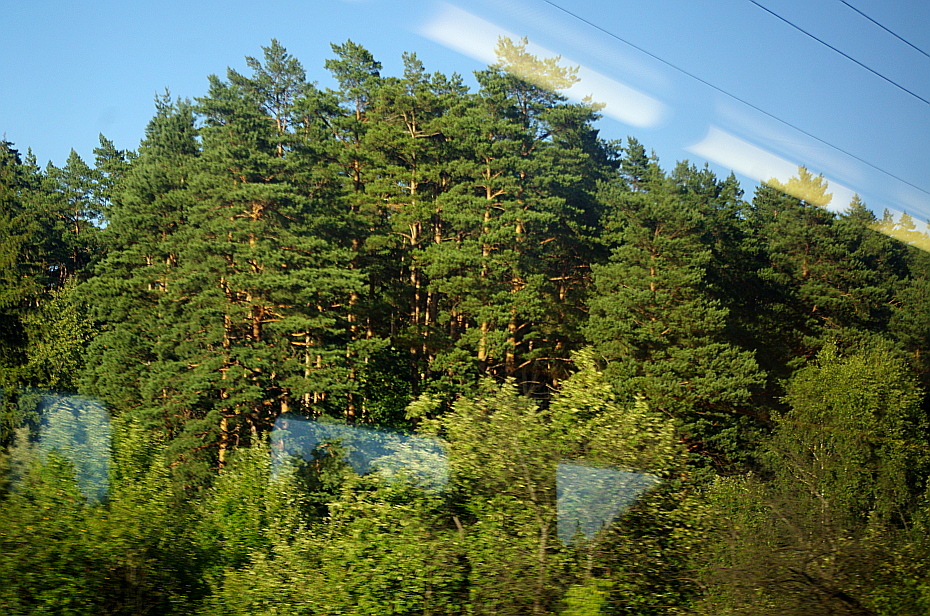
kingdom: Plantae
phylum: Tracheophyta
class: Pinopsida
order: Pinales
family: Pinaceae
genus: Pinus
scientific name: Pinus sylvestris
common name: Scots pine
